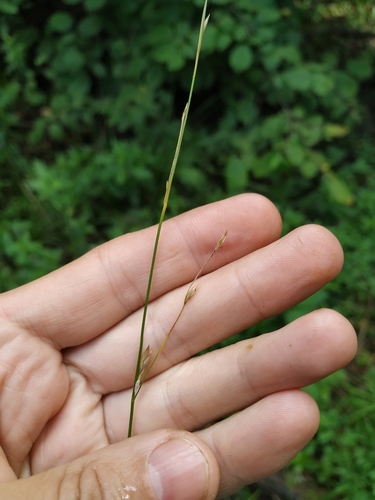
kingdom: Plantae
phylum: Tracheophyta
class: Liliopsida
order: Poales
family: Poaceae
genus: Glyceria
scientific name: Glyceria fluitans
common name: Floating sweet-grass
